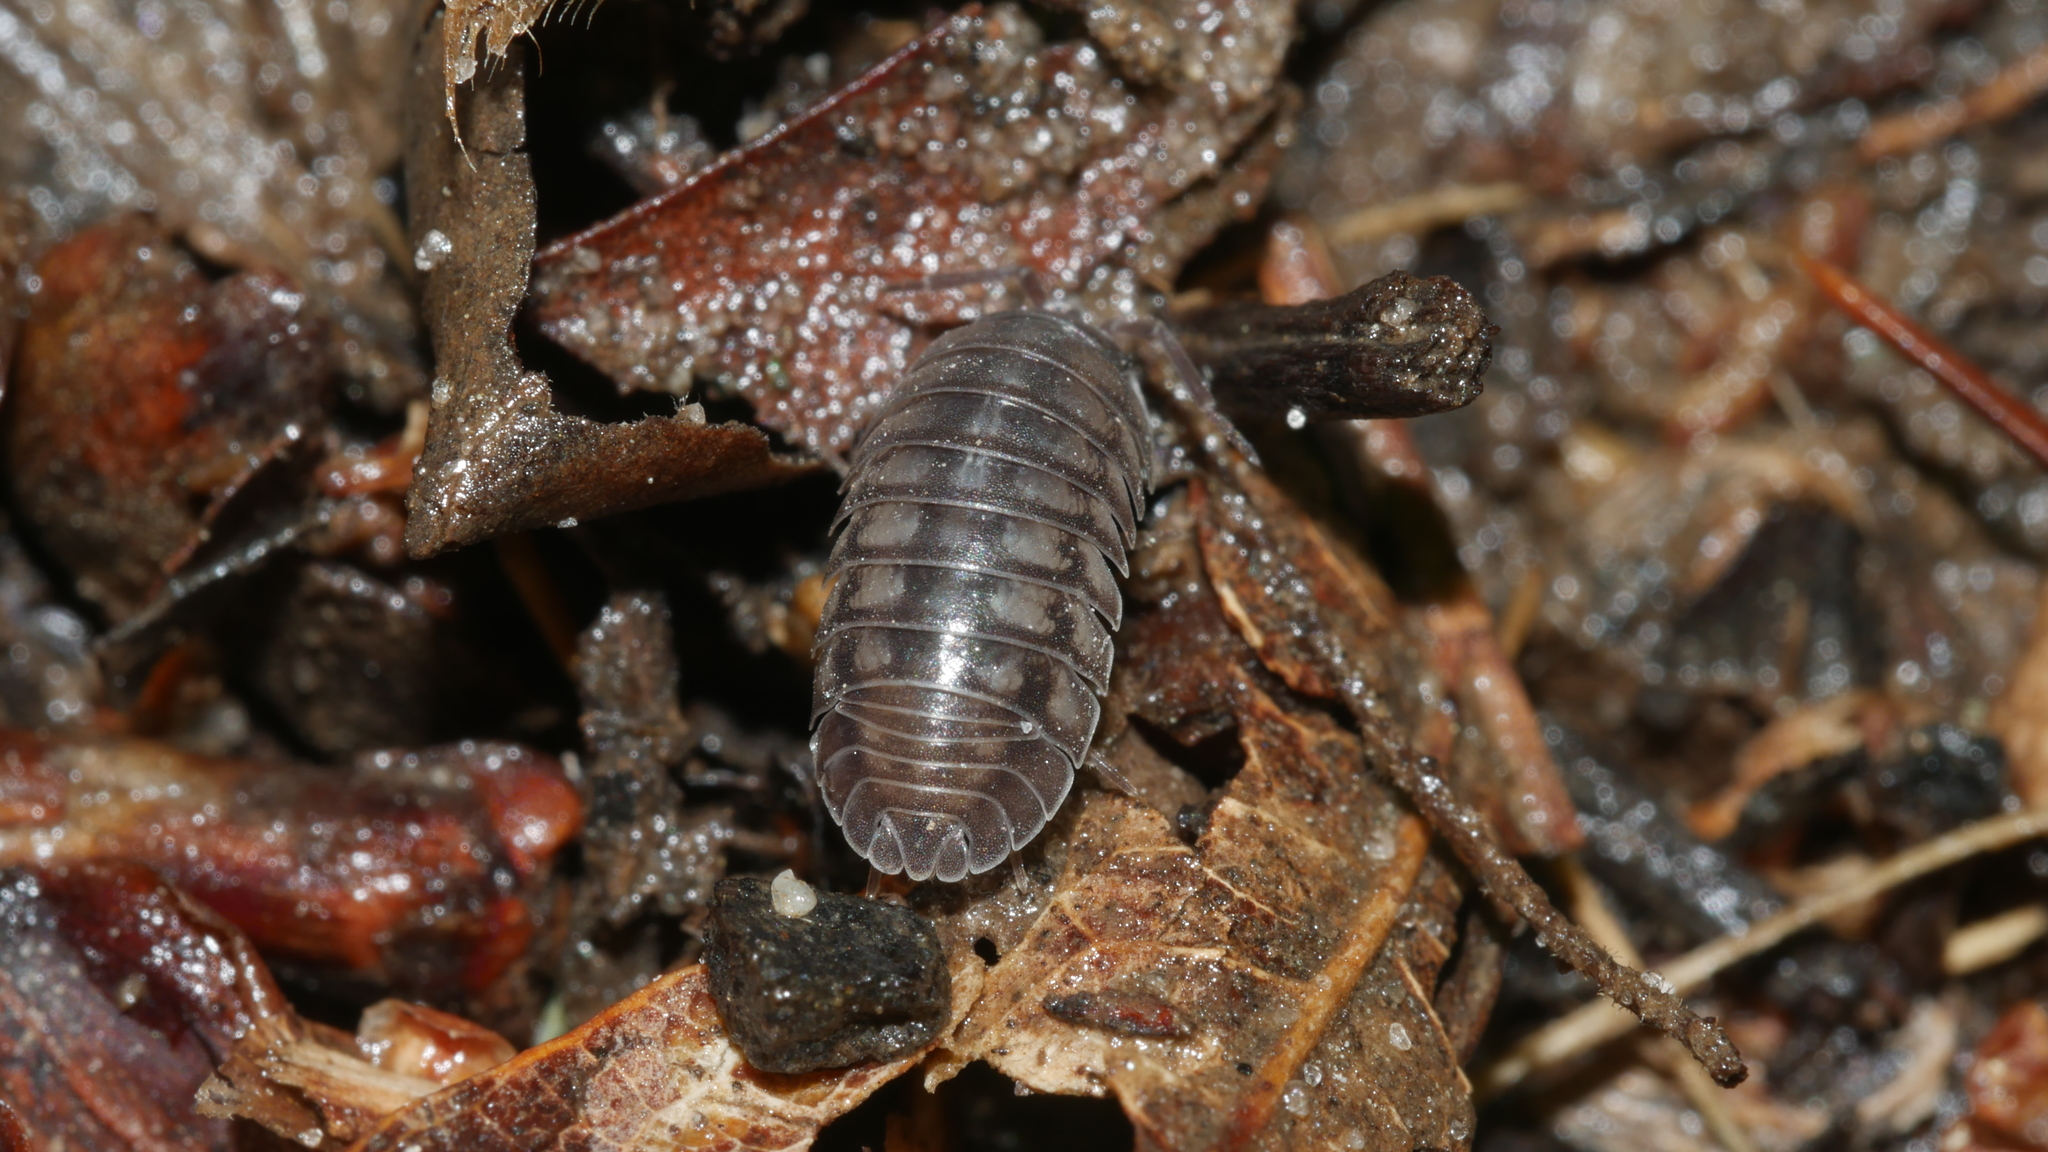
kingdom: Animalia
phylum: Arthropoda
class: Malacostraca
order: Isopoda
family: Armadillidiidae
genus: Armadillidium
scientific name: Armadillidium nasatum
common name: Isopod
